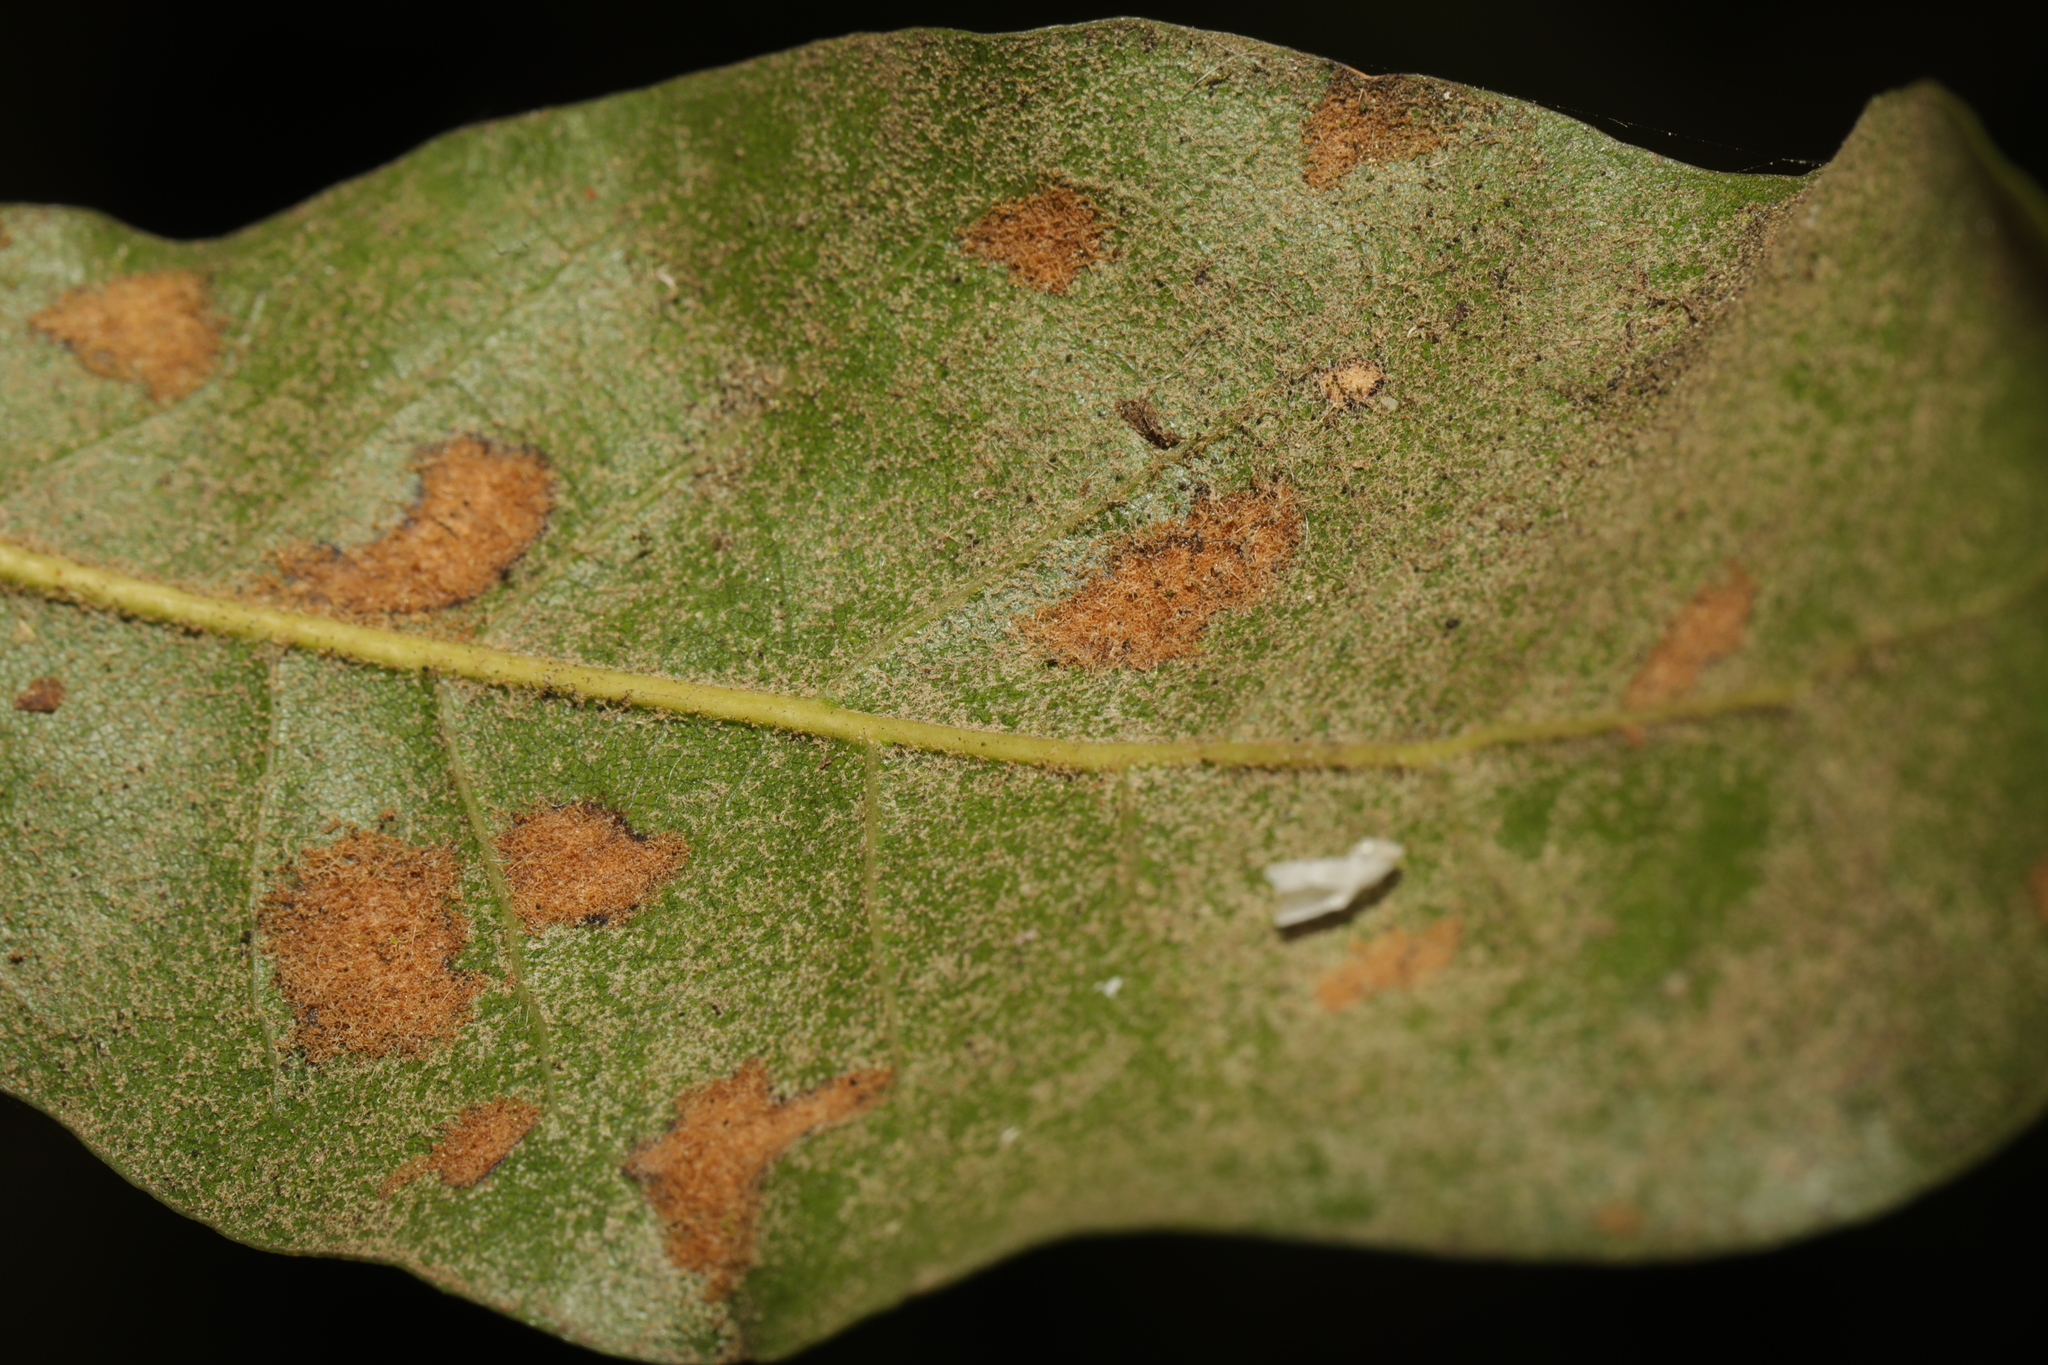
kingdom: Animalia
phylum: Arthropoda
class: Arachnida
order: Trombidiformes
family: Eriophyidae
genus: Aceria
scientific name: Aceria ilicis
